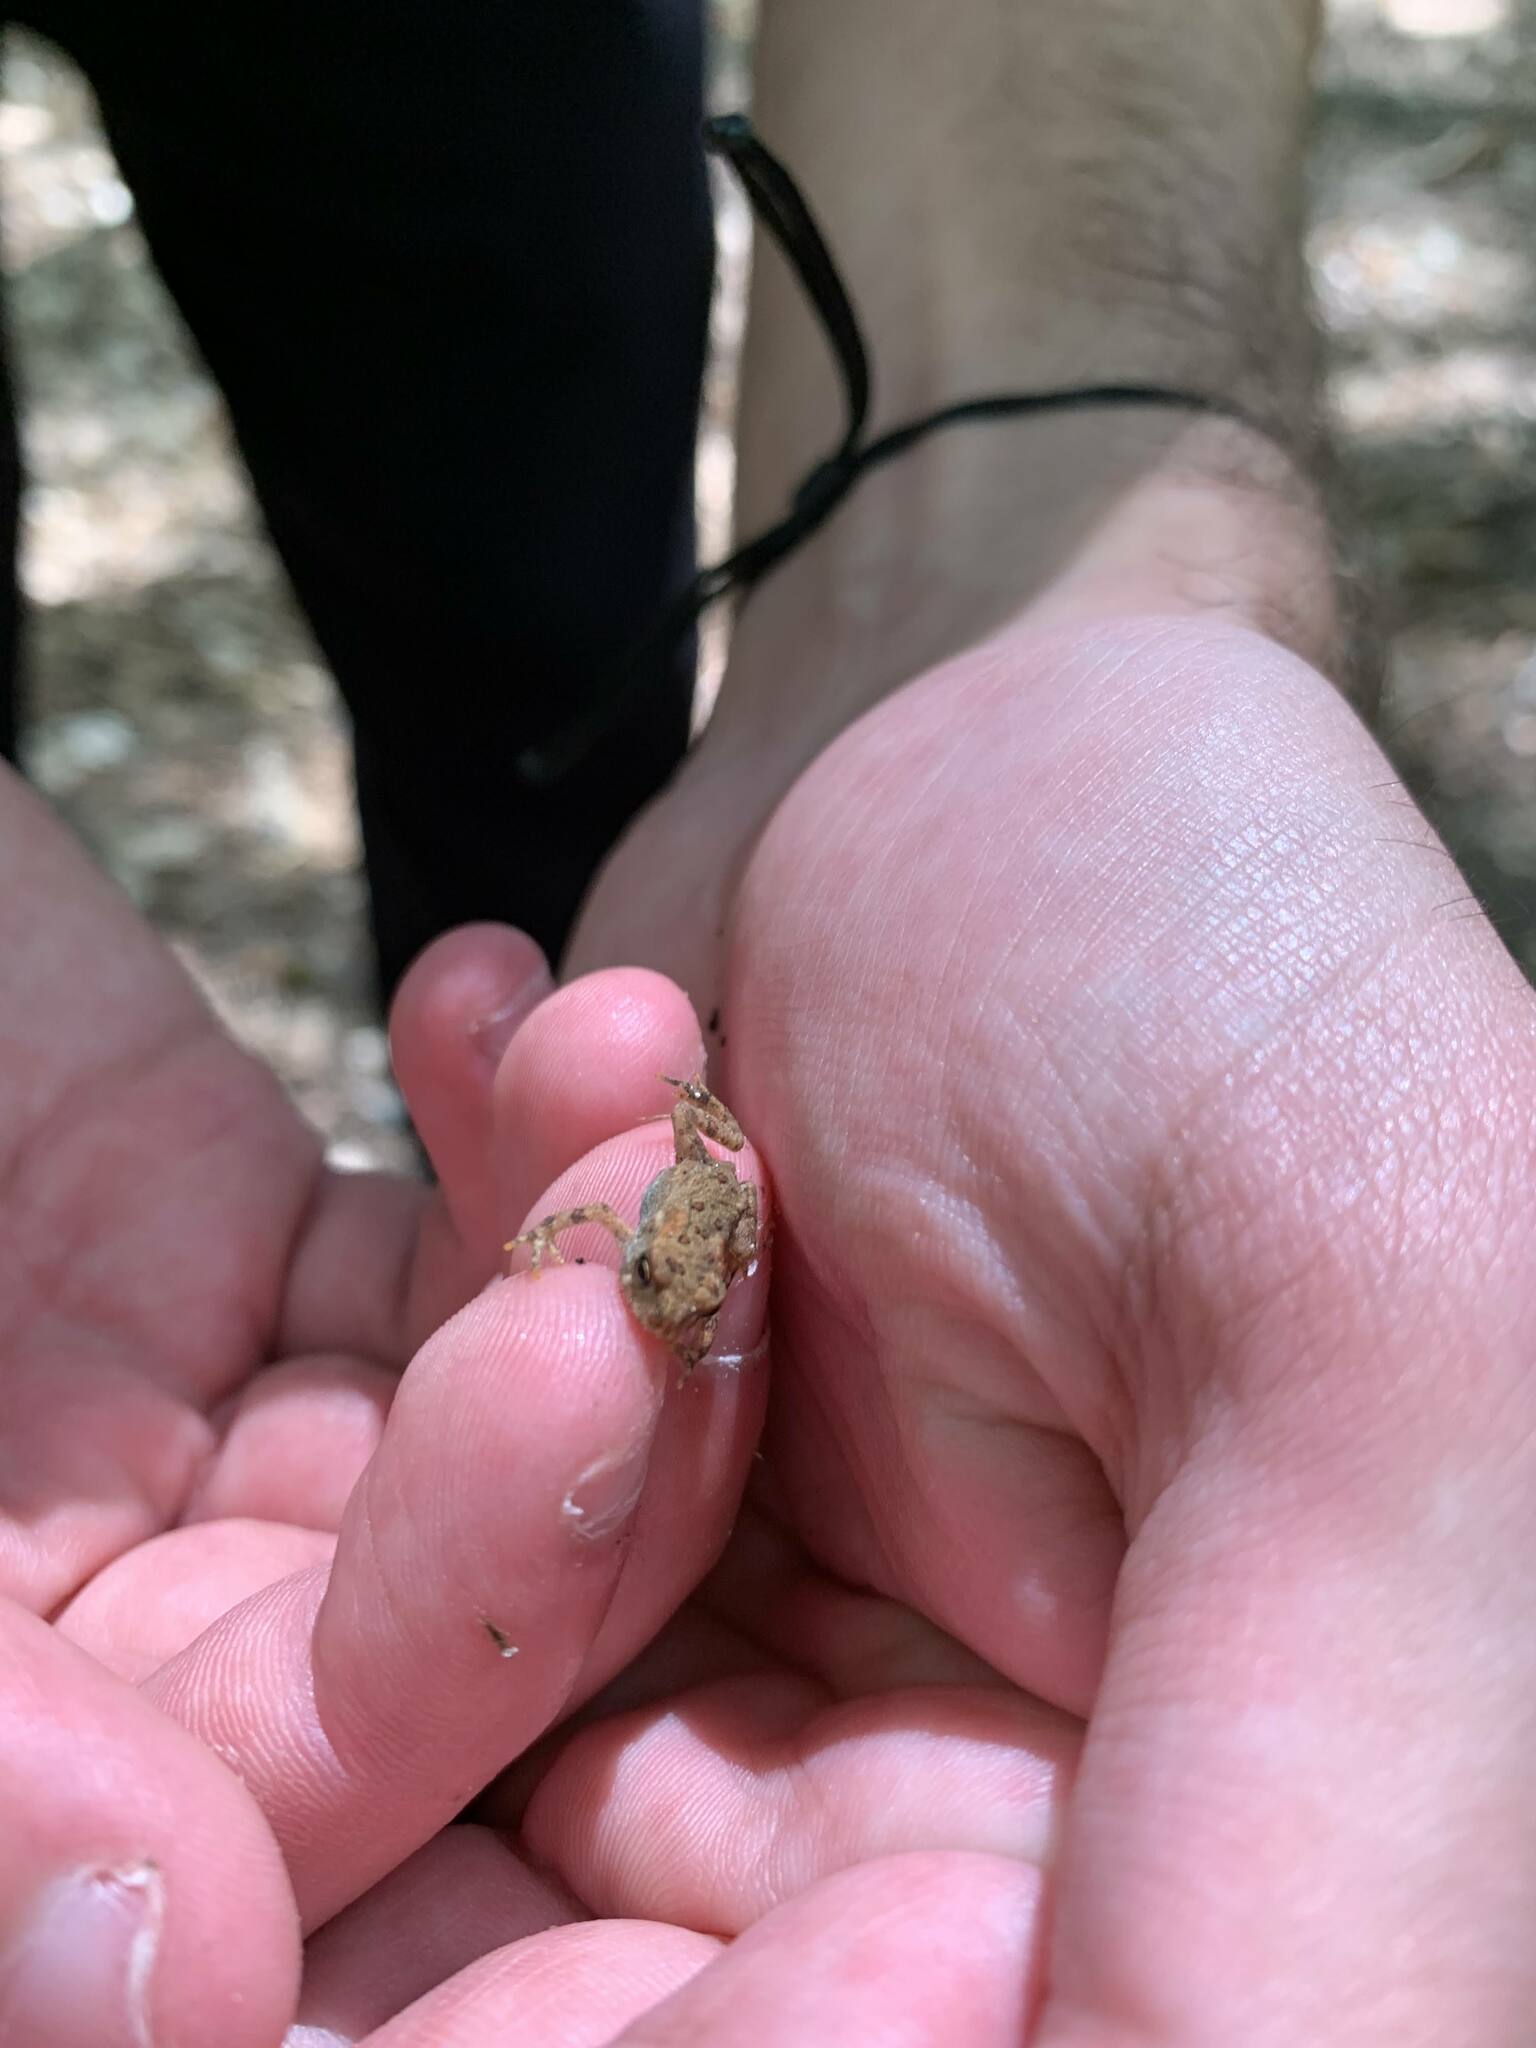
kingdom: Animalia
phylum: Chordata
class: Amphibia
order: Anura
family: Bufonidae
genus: Anaxyrus
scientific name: Anaxyrus americanus
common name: American toad
